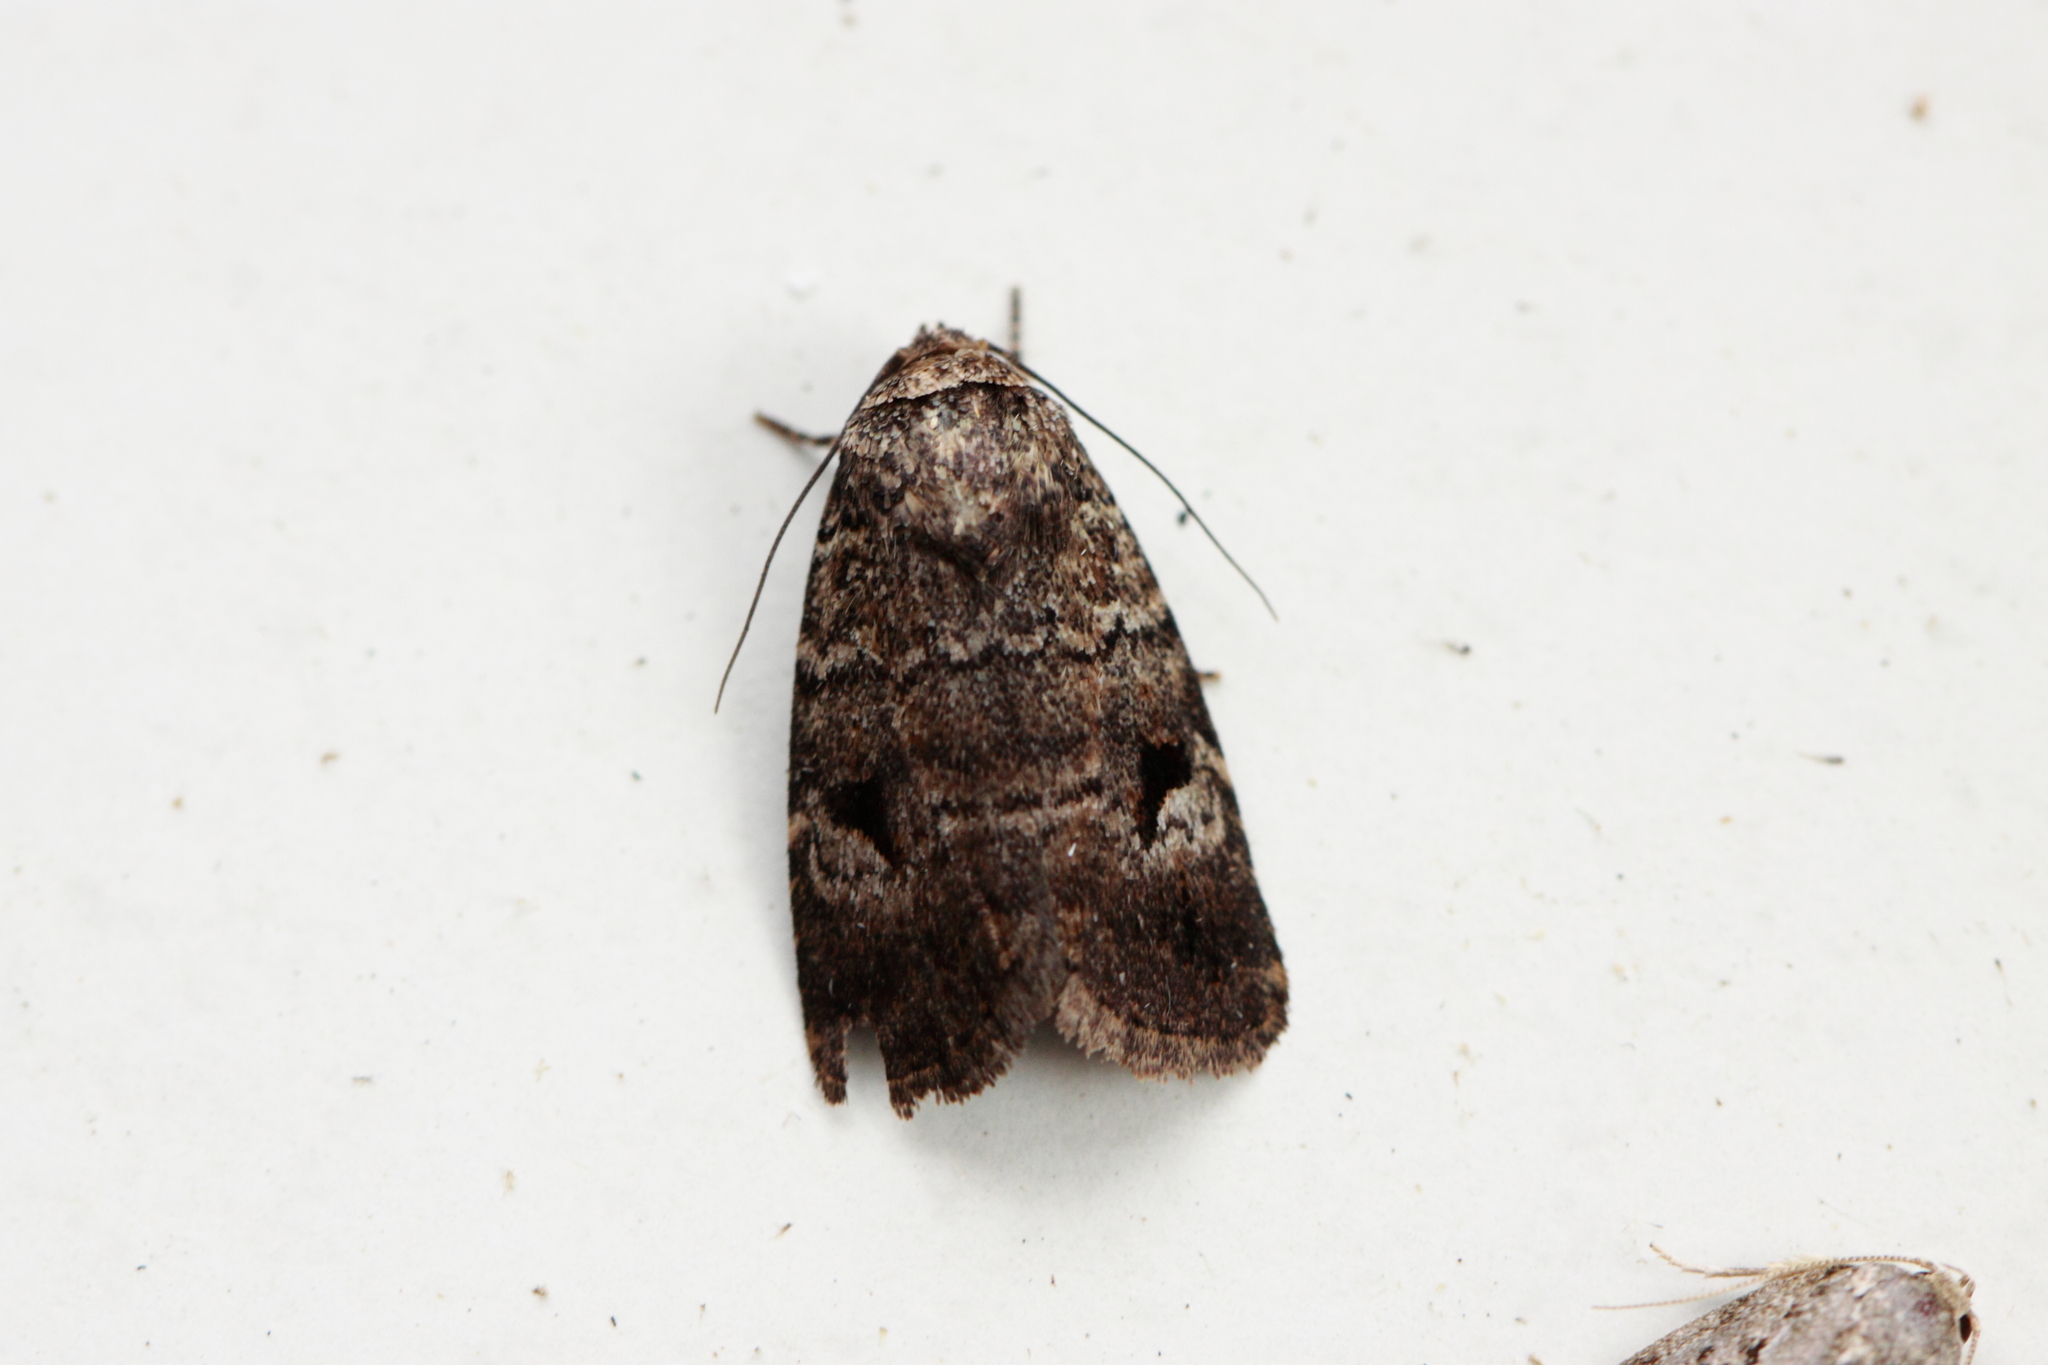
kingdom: Animalia
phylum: Arthropoda
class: Insecta
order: Lepidoptera
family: Noctuidae
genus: Thoracolopha
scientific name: Thoracolopha verecunda
